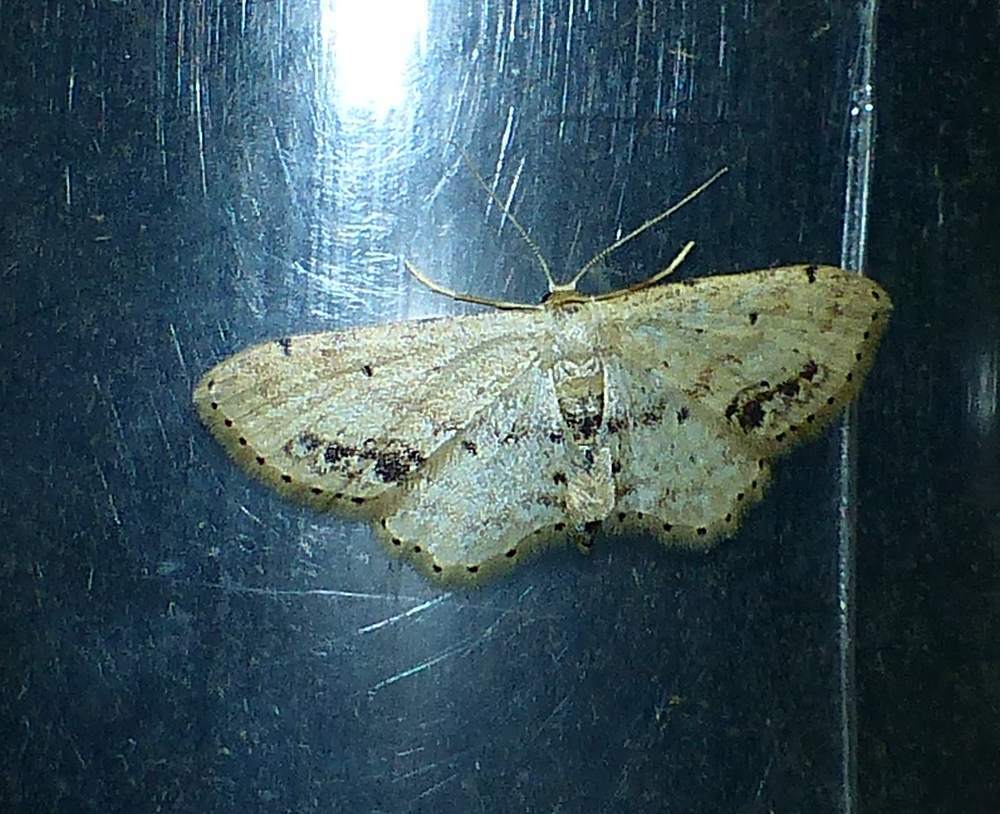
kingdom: Animalia
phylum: Arthropoda
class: Insecta
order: Lepidoptera
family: Geometridae
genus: Idaea
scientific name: Idaea dimidiata
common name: Single-dotted wave
